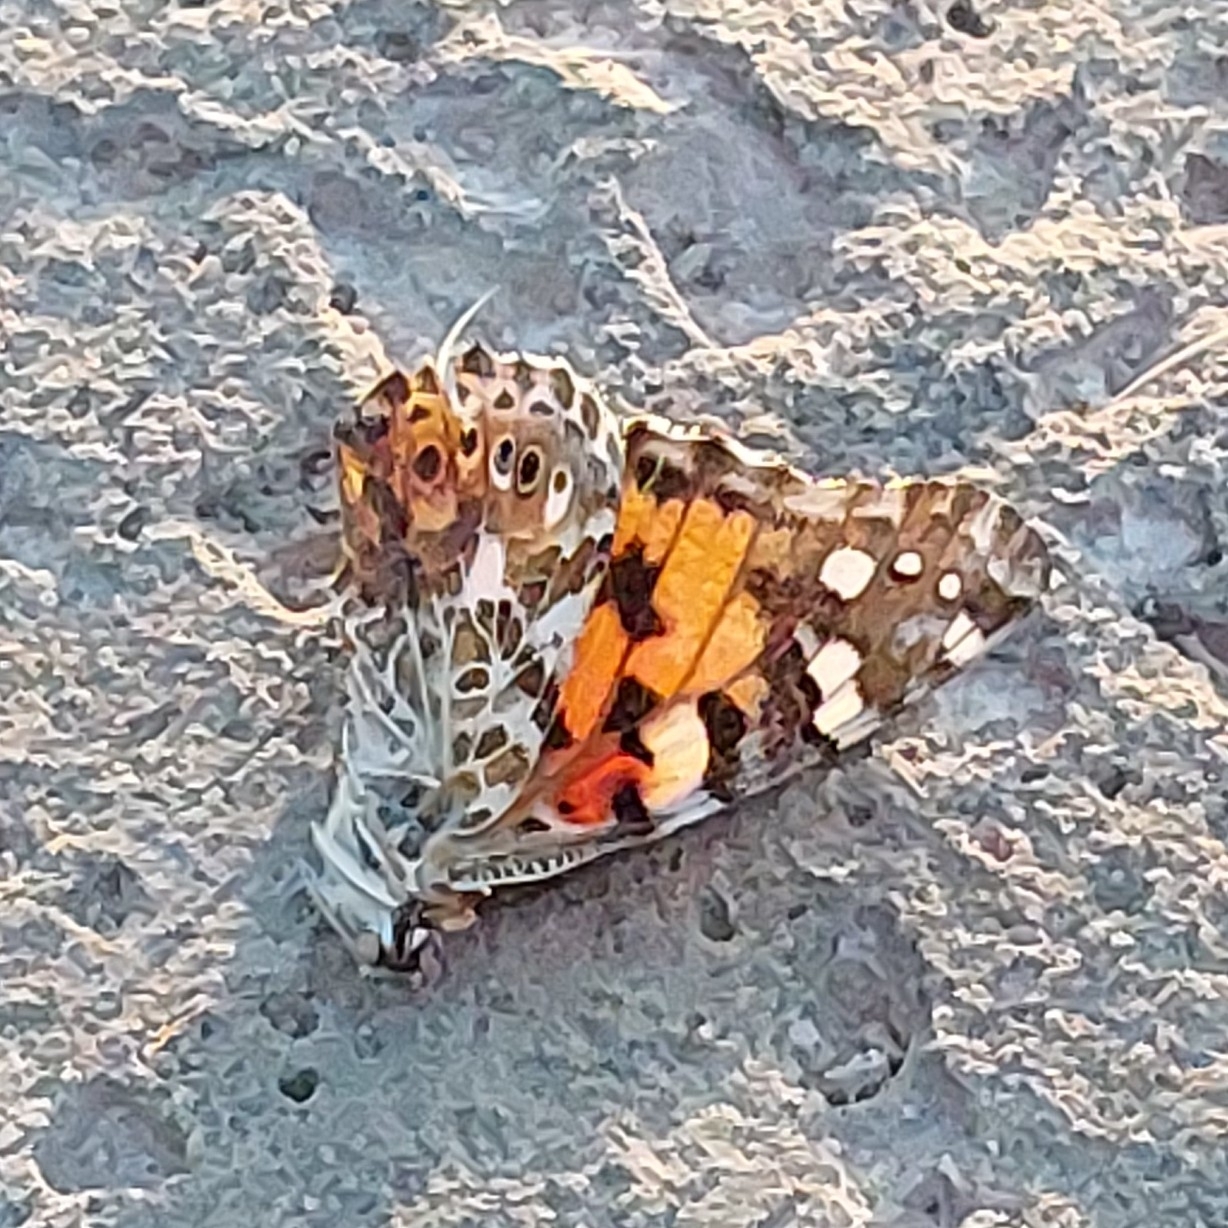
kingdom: Animalia
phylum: Arthropoda
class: Insecta
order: Lepidoptera
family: Nymphalidae
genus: Vanessa
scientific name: Vanessa cardui
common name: Painted lady
